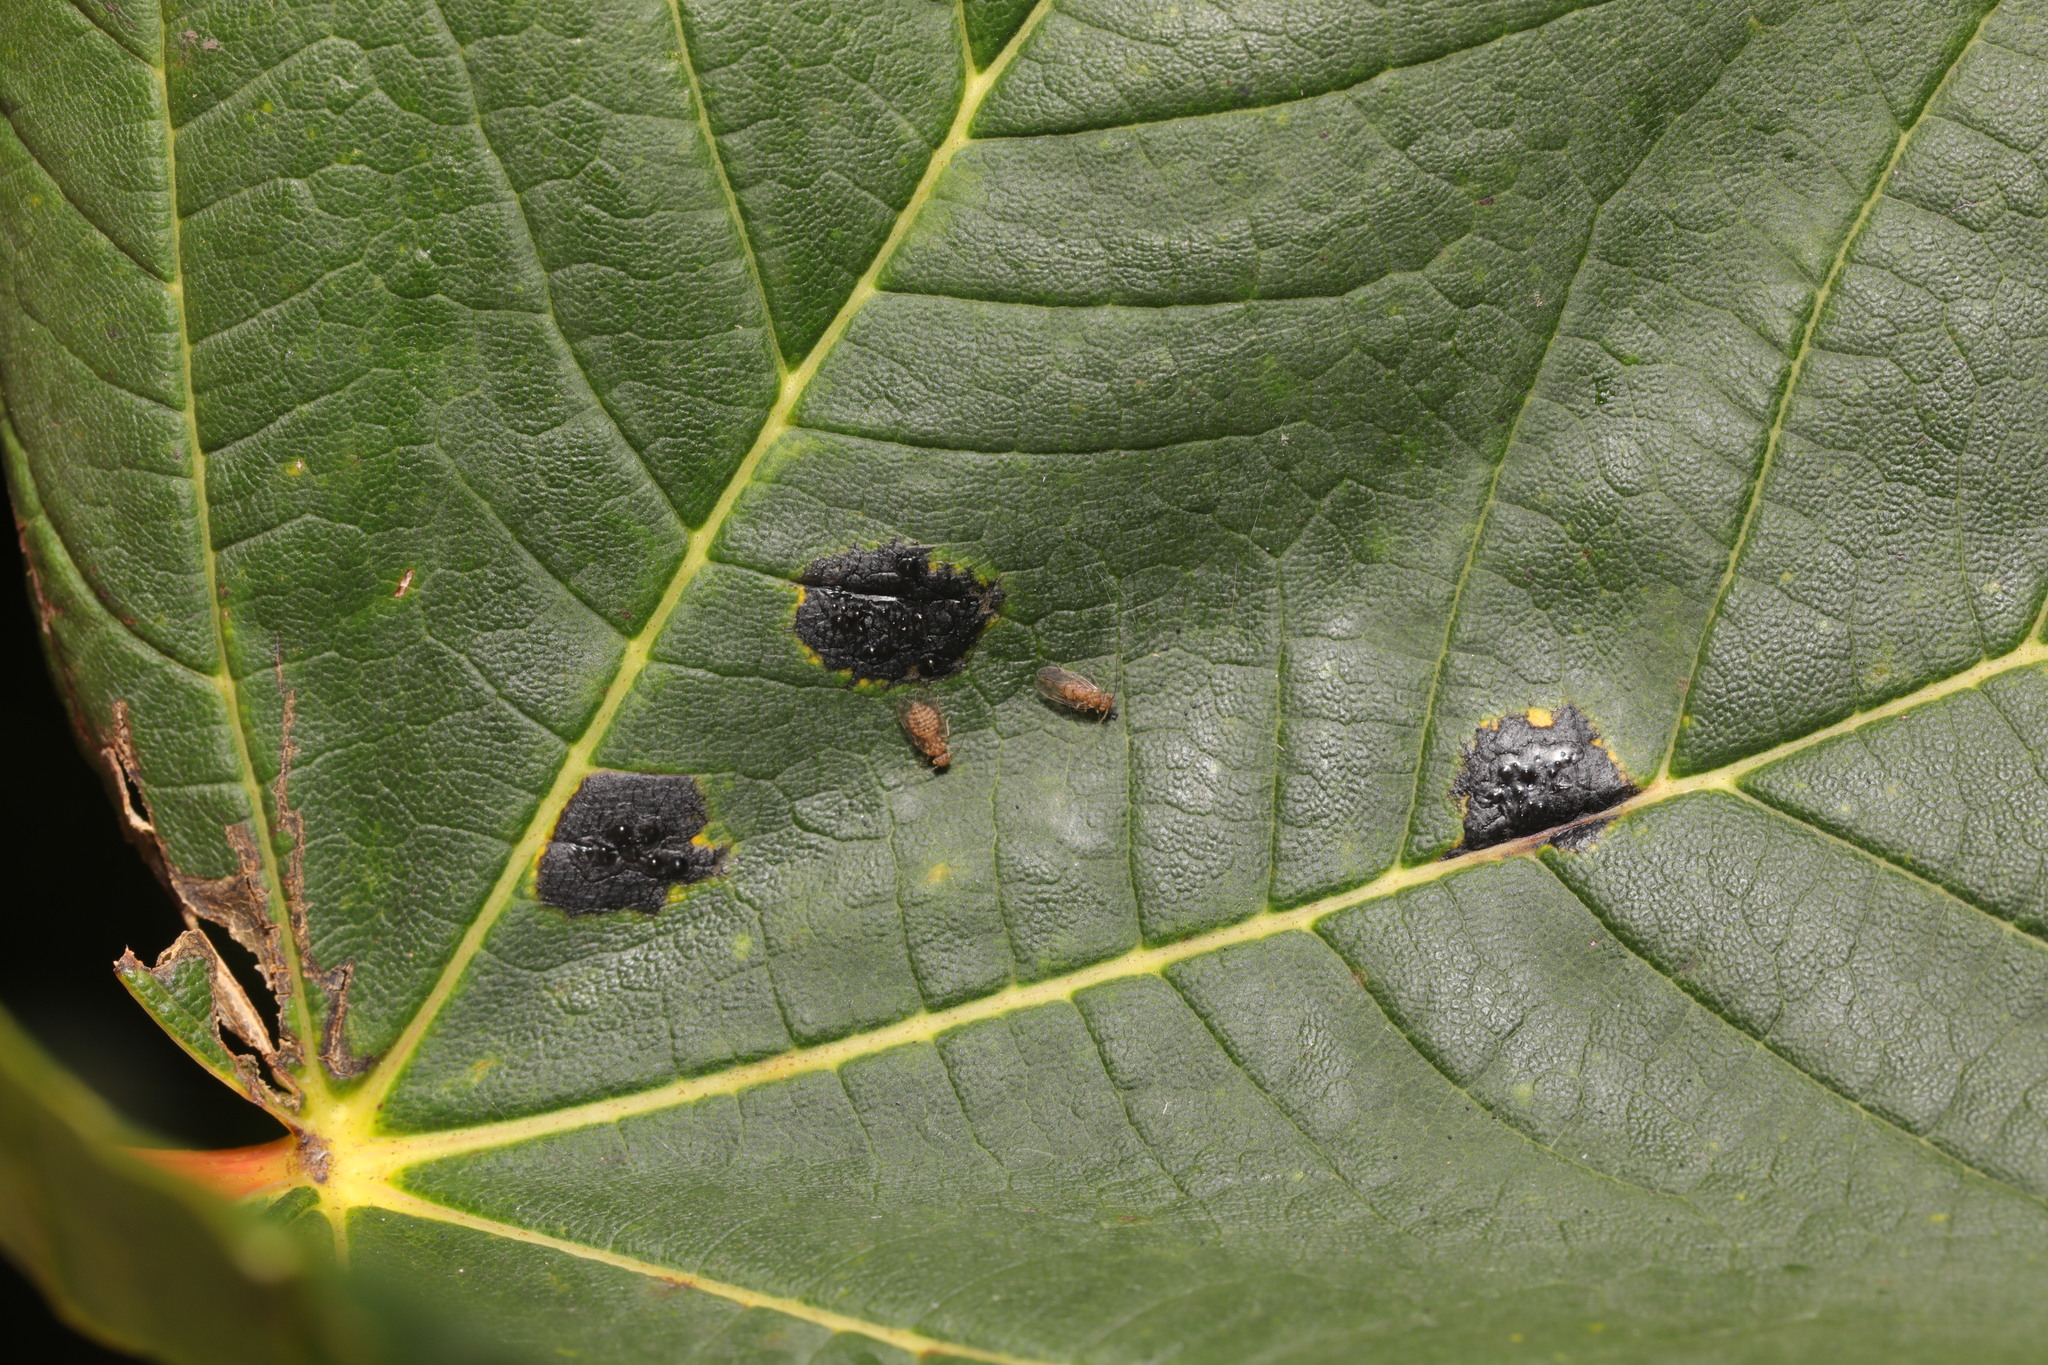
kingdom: Fungi
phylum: Ascomycota
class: Leotiomycetes
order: Rhytismatales
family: Rhytismataceae
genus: Rhytisma
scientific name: Rhytisma acerinum
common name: European tar spot
